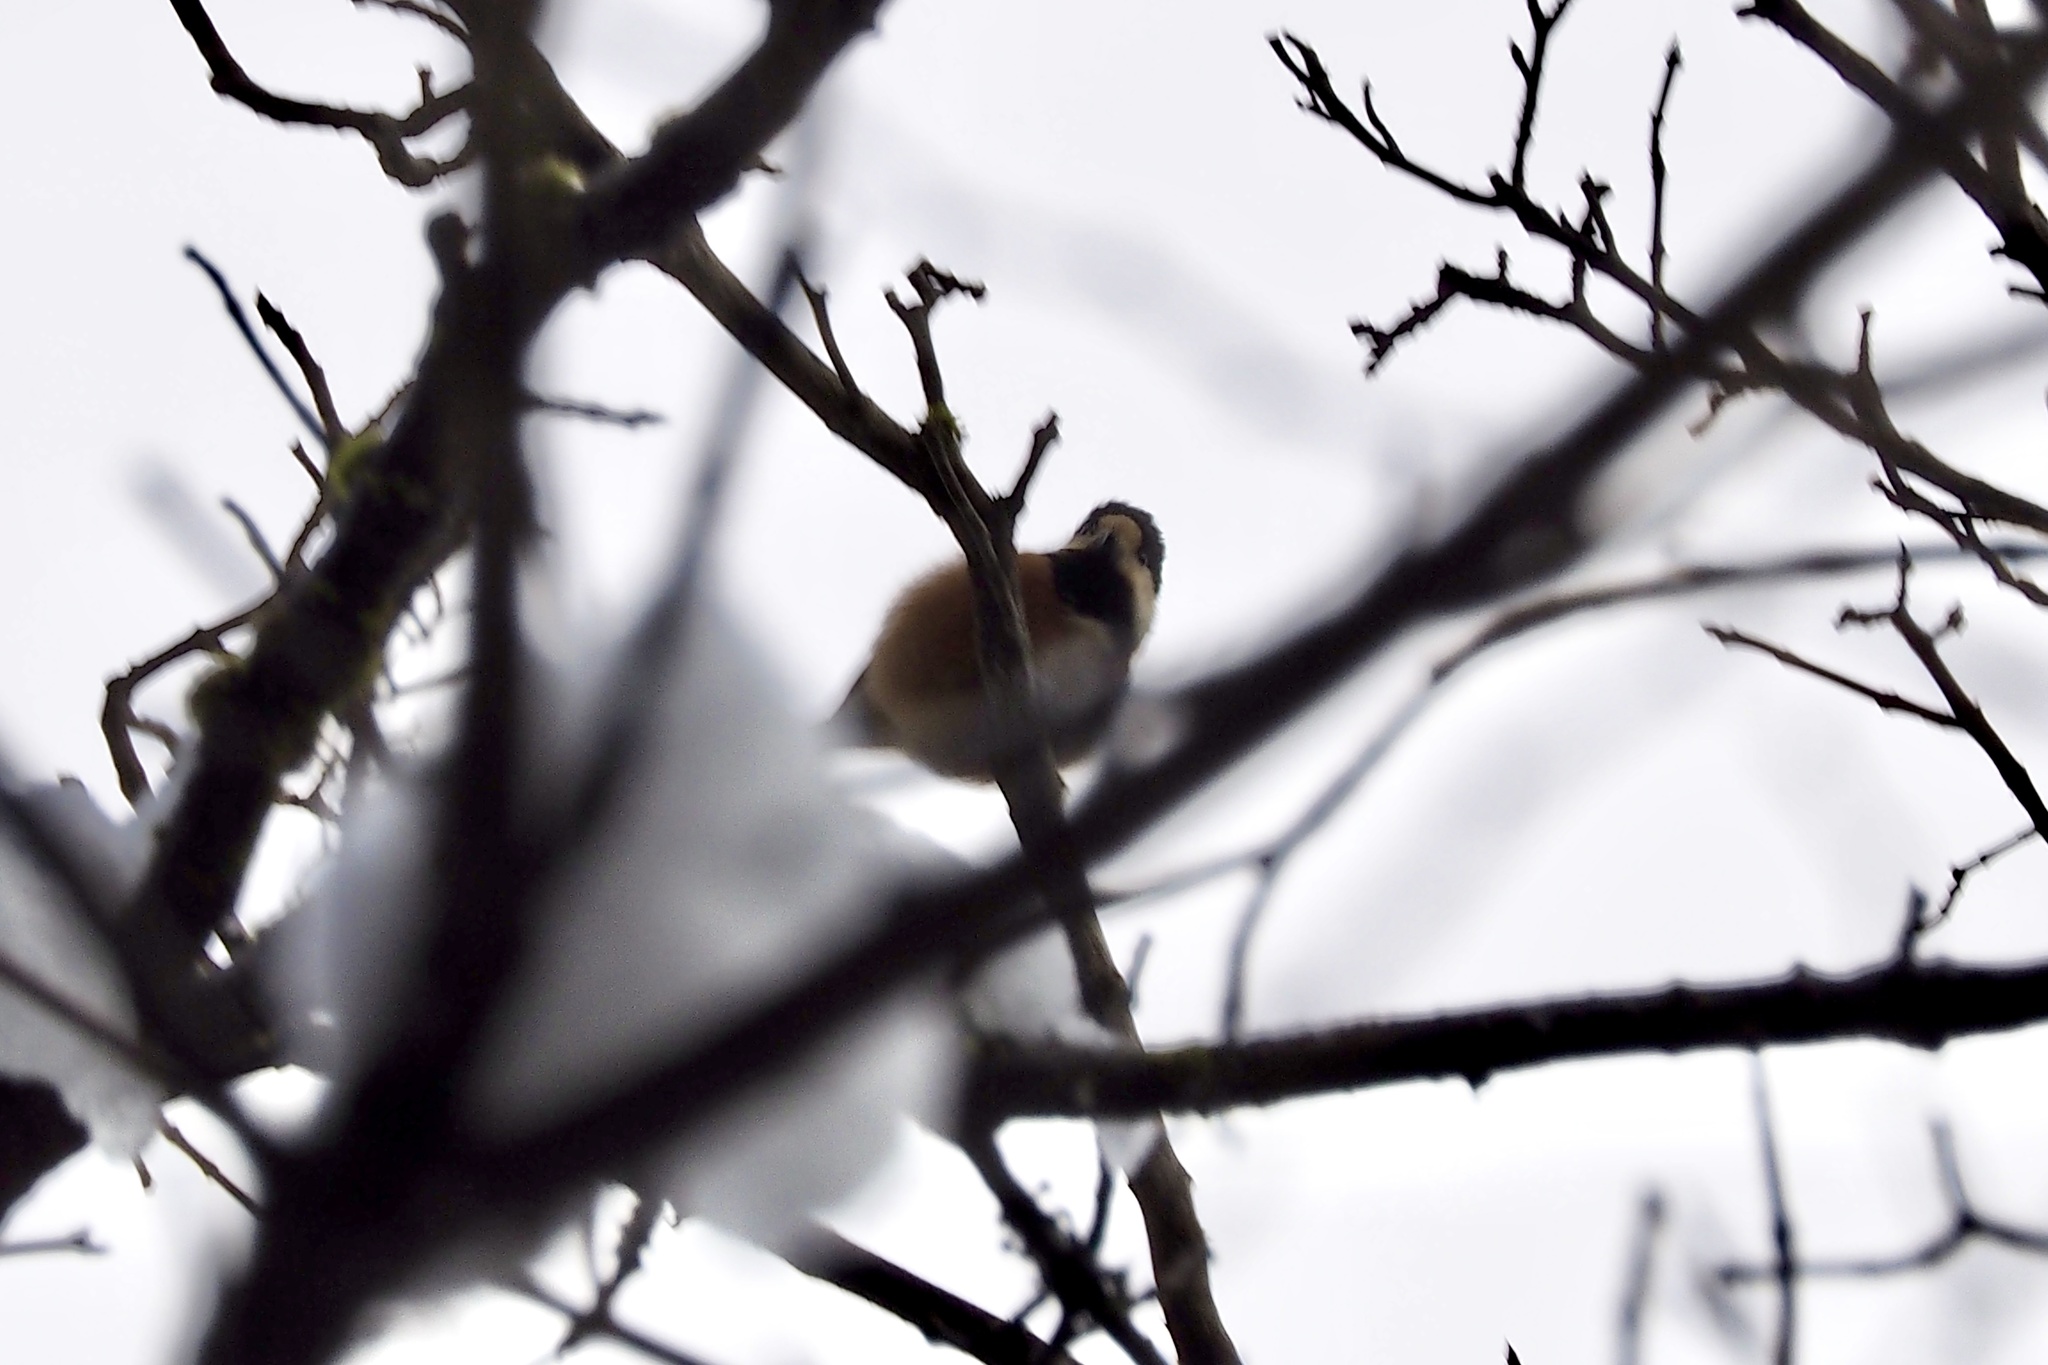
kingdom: Animalia
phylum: Chordata
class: Aves
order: Passeriformes
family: Paridae
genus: Poecile
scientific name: Poecile varius
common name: Varied tit
